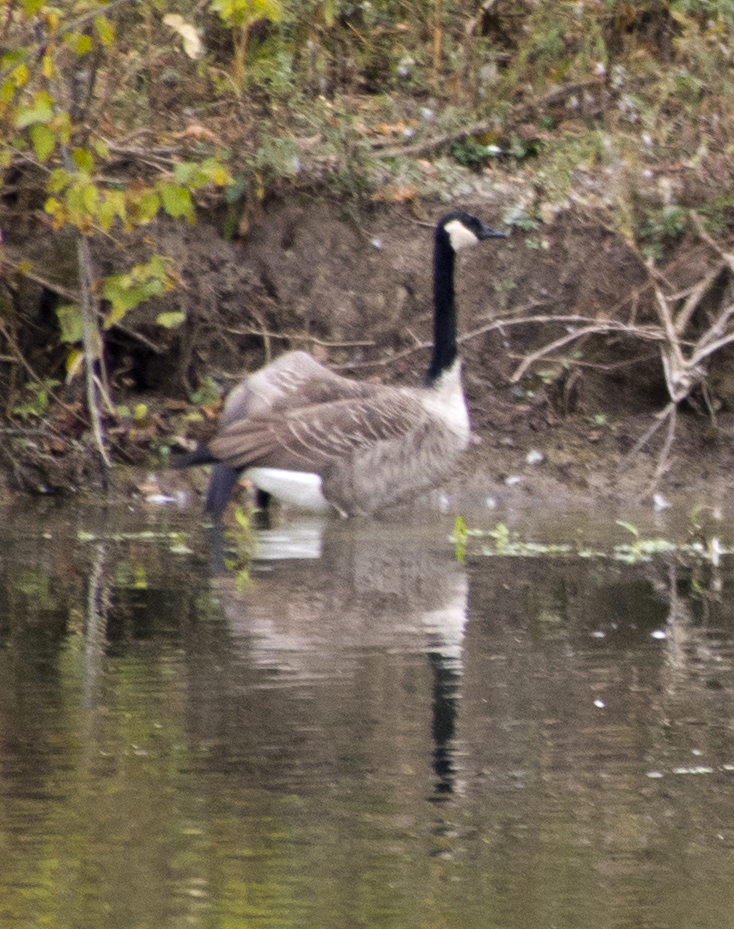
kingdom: Animalia
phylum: Chordata
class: Aves
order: Anseriformes
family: Anatidae
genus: Branta
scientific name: Branta canadensis
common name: Canada goose
